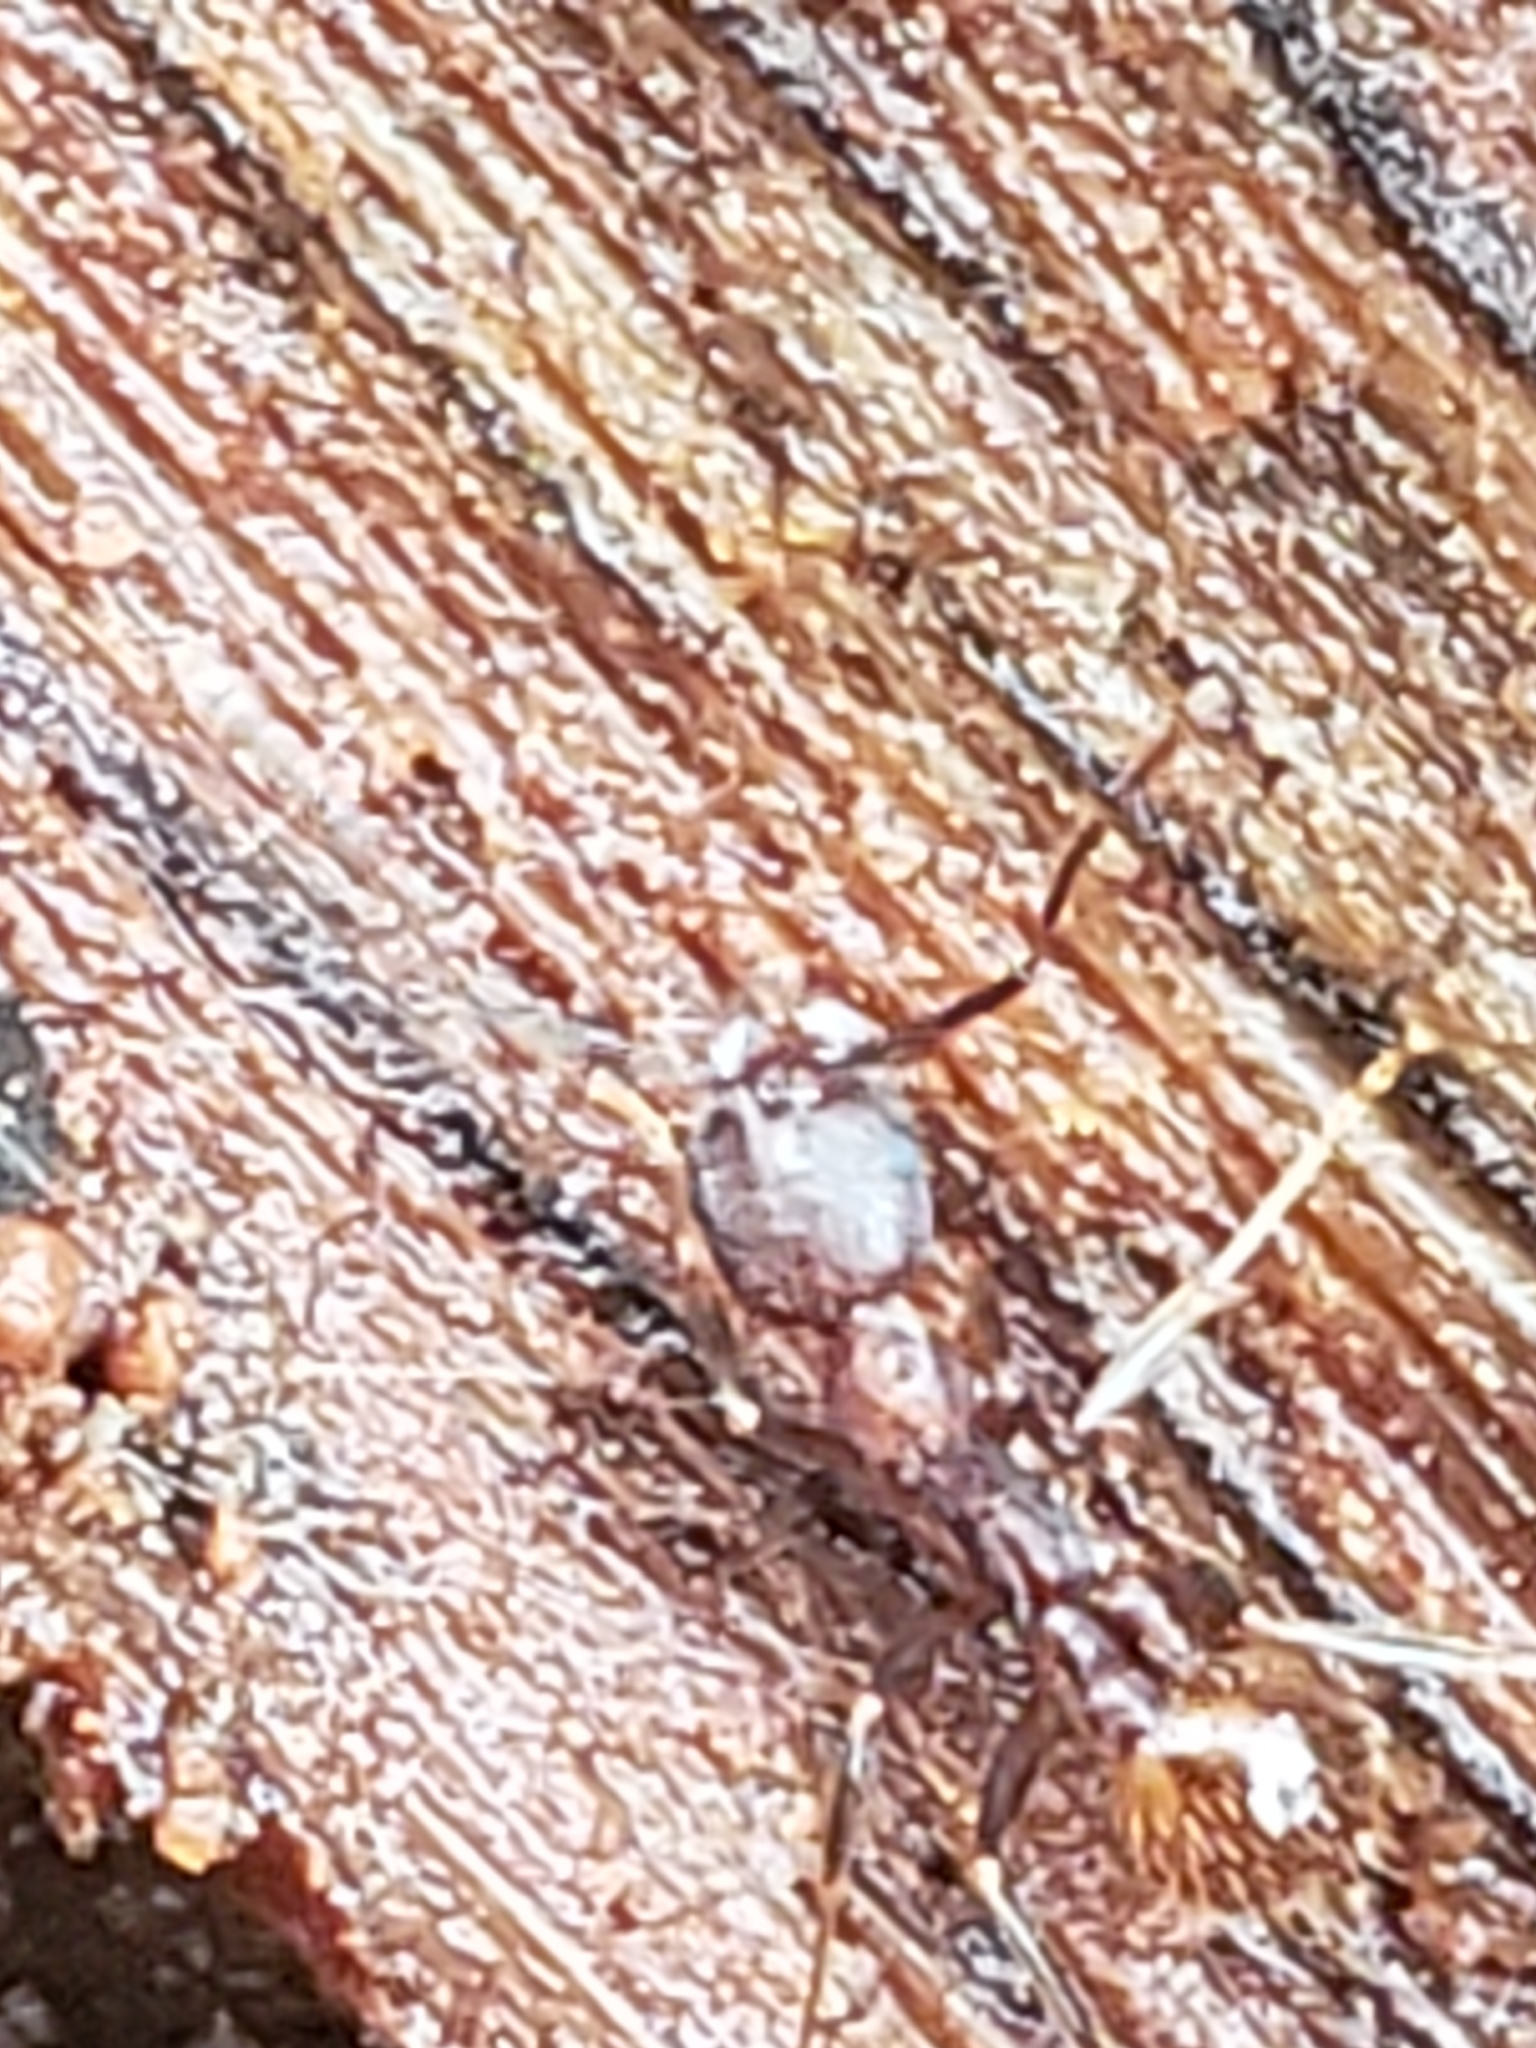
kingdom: Animalia
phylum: Arthropoda
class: Insecta
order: Hymenoptera
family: Formicidae
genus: Aphaenogaster
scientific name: Aphaenogaster fulva
